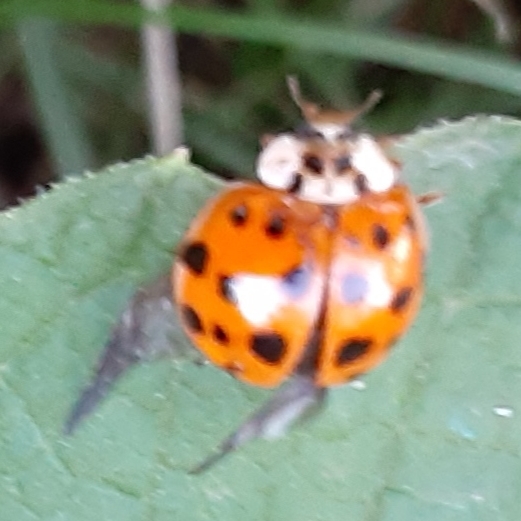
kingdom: Animalia
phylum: Arthropoda
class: Insecta
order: Coleoptera
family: Coccinellidae
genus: Harmonia
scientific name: Harmonia axyridis
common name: Harlequin ladybird
